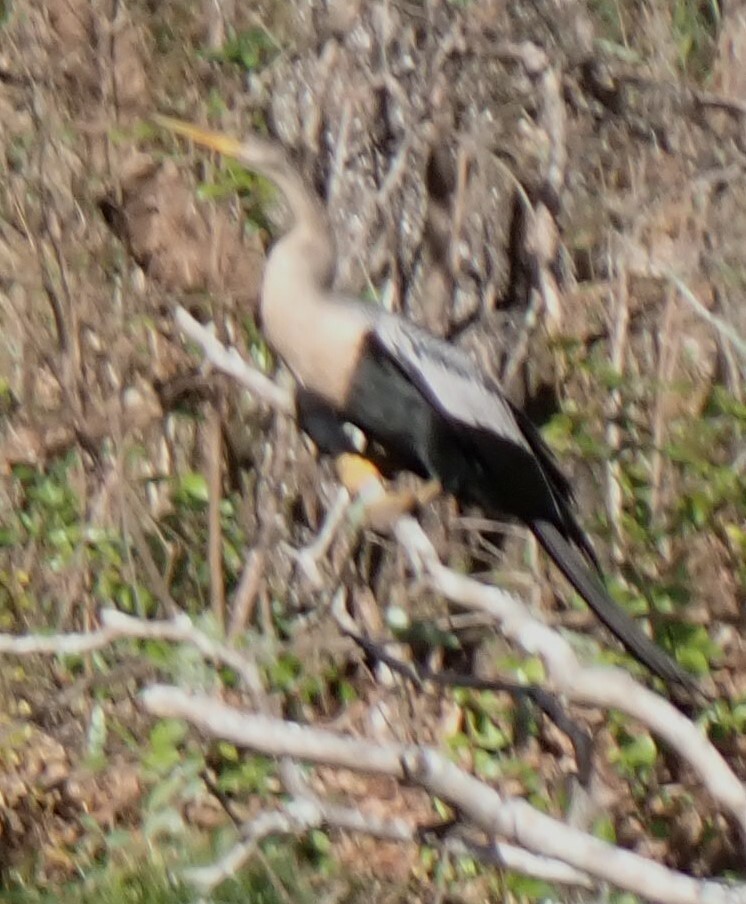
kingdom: Animalia
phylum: Chordata
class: Aves
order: Suliformes
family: Anhingidae
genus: Anhinga
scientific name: Anhinga anhinga
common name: Anhinga
